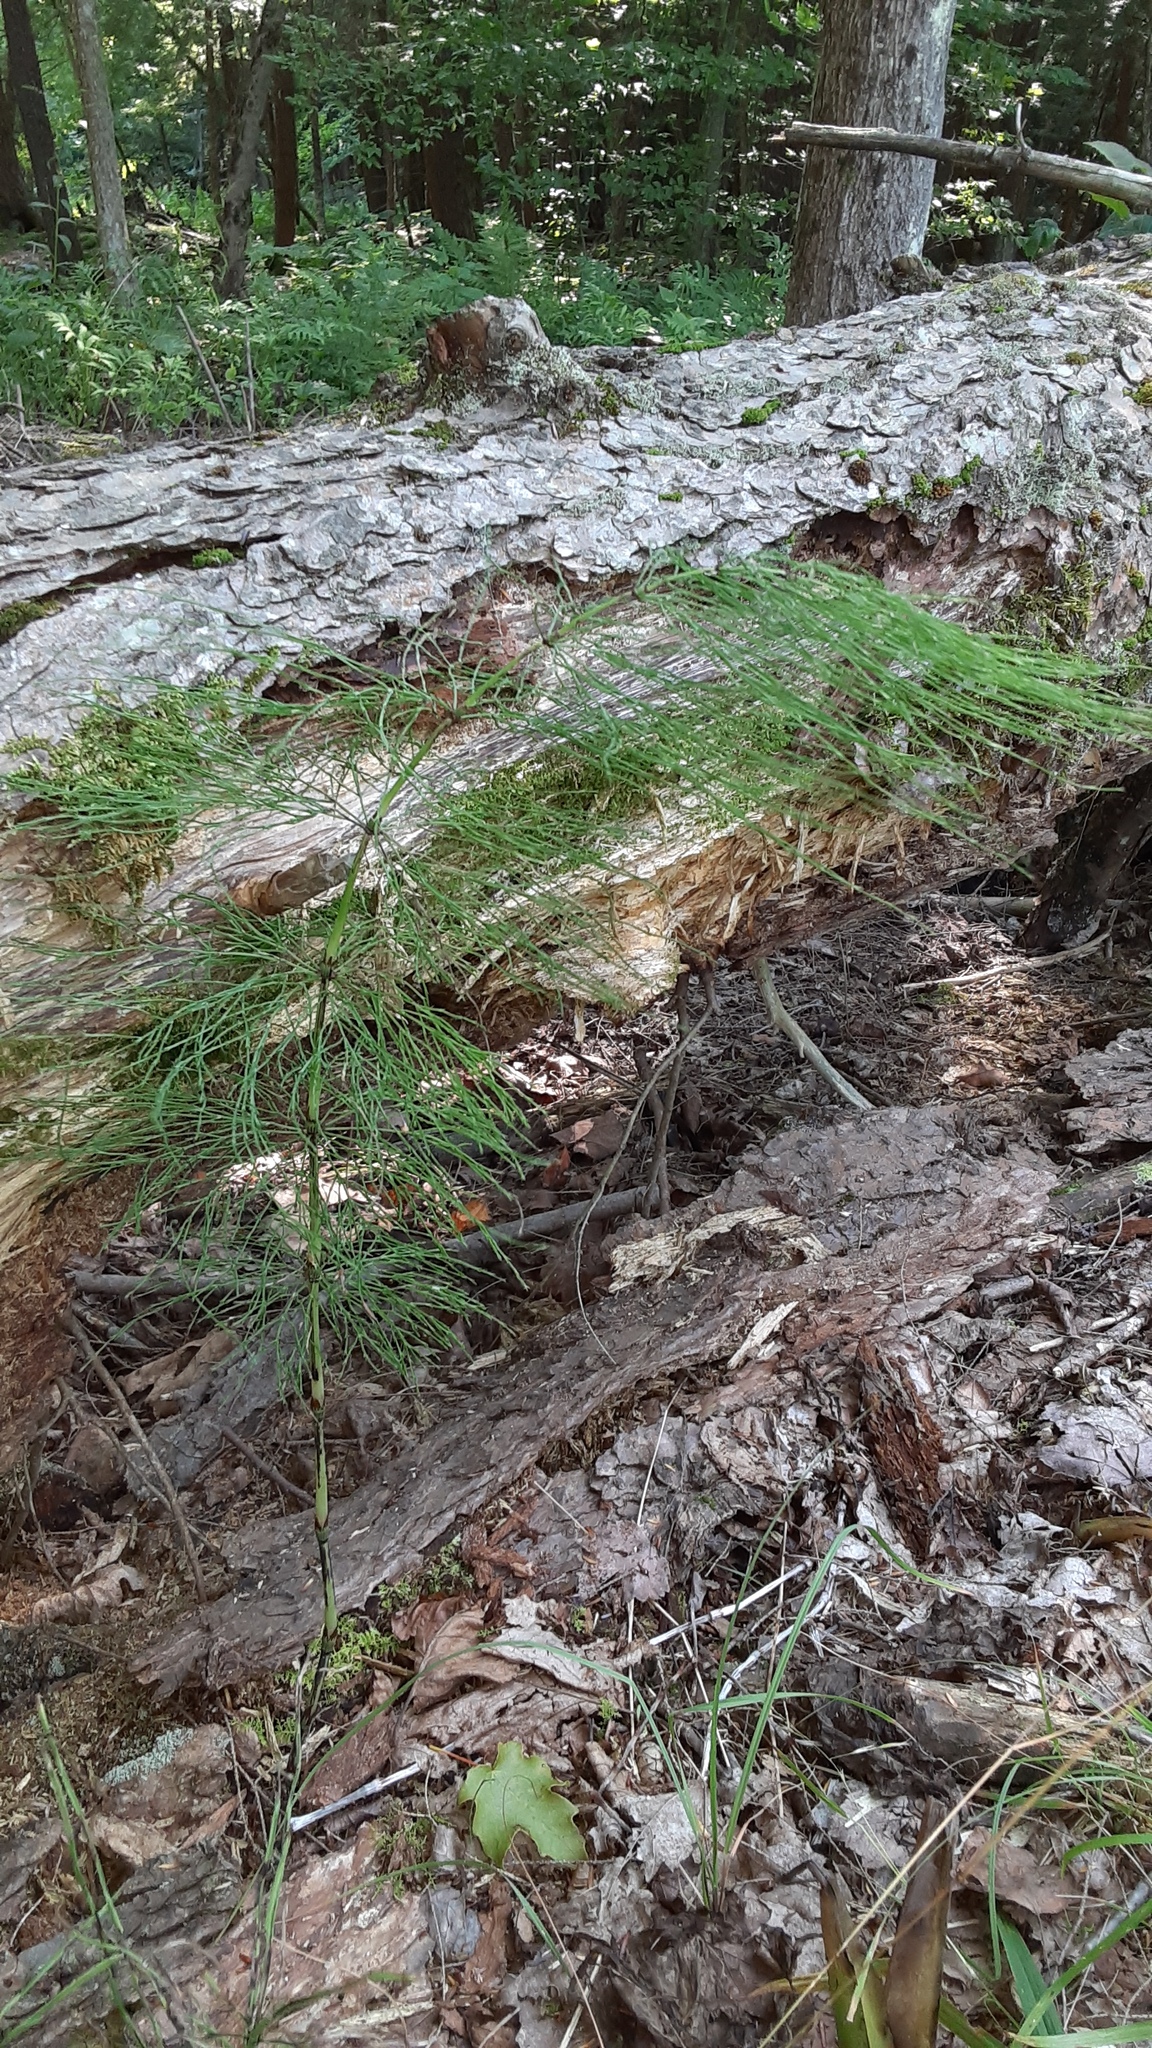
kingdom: Plantae
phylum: Tracheophyta
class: Polypodiopsida
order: Equisetales
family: Equisetaceae
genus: Equisetum
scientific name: Equisetum sylvaticum
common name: Wood horsetail
